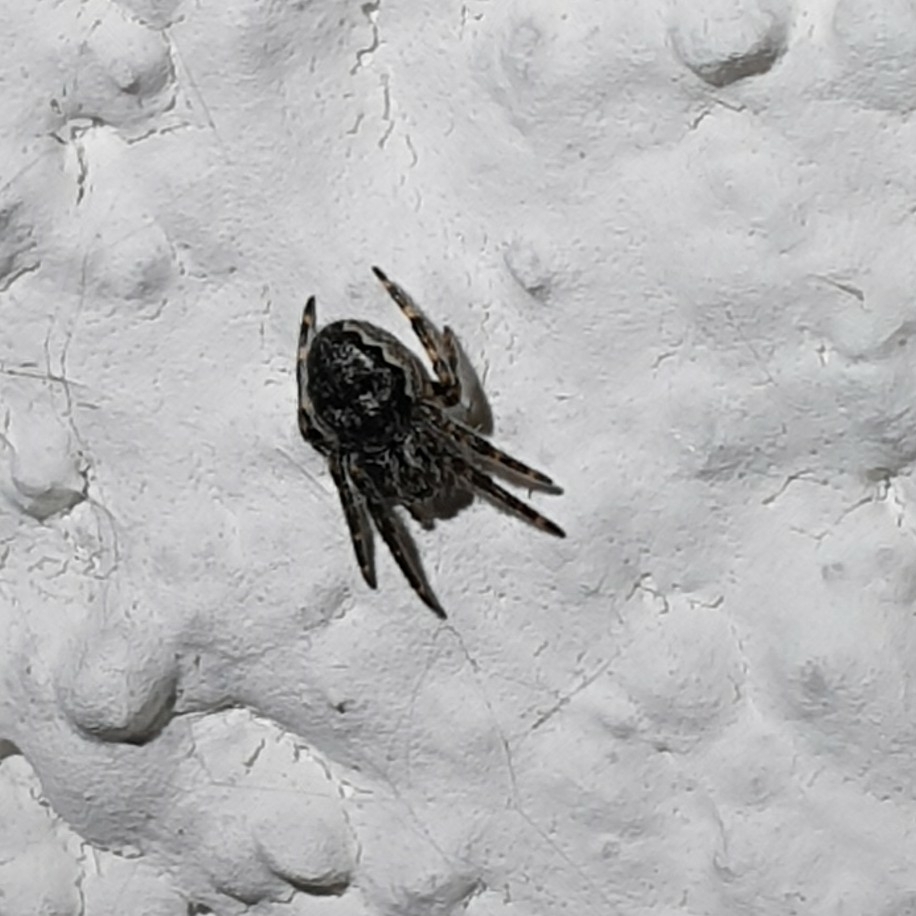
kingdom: Animalia
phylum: Arthropoda
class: Arachnida
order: Araneae
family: Araneidae
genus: Nuctenea
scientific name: Nuctenea umbratica
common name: Toad spider
